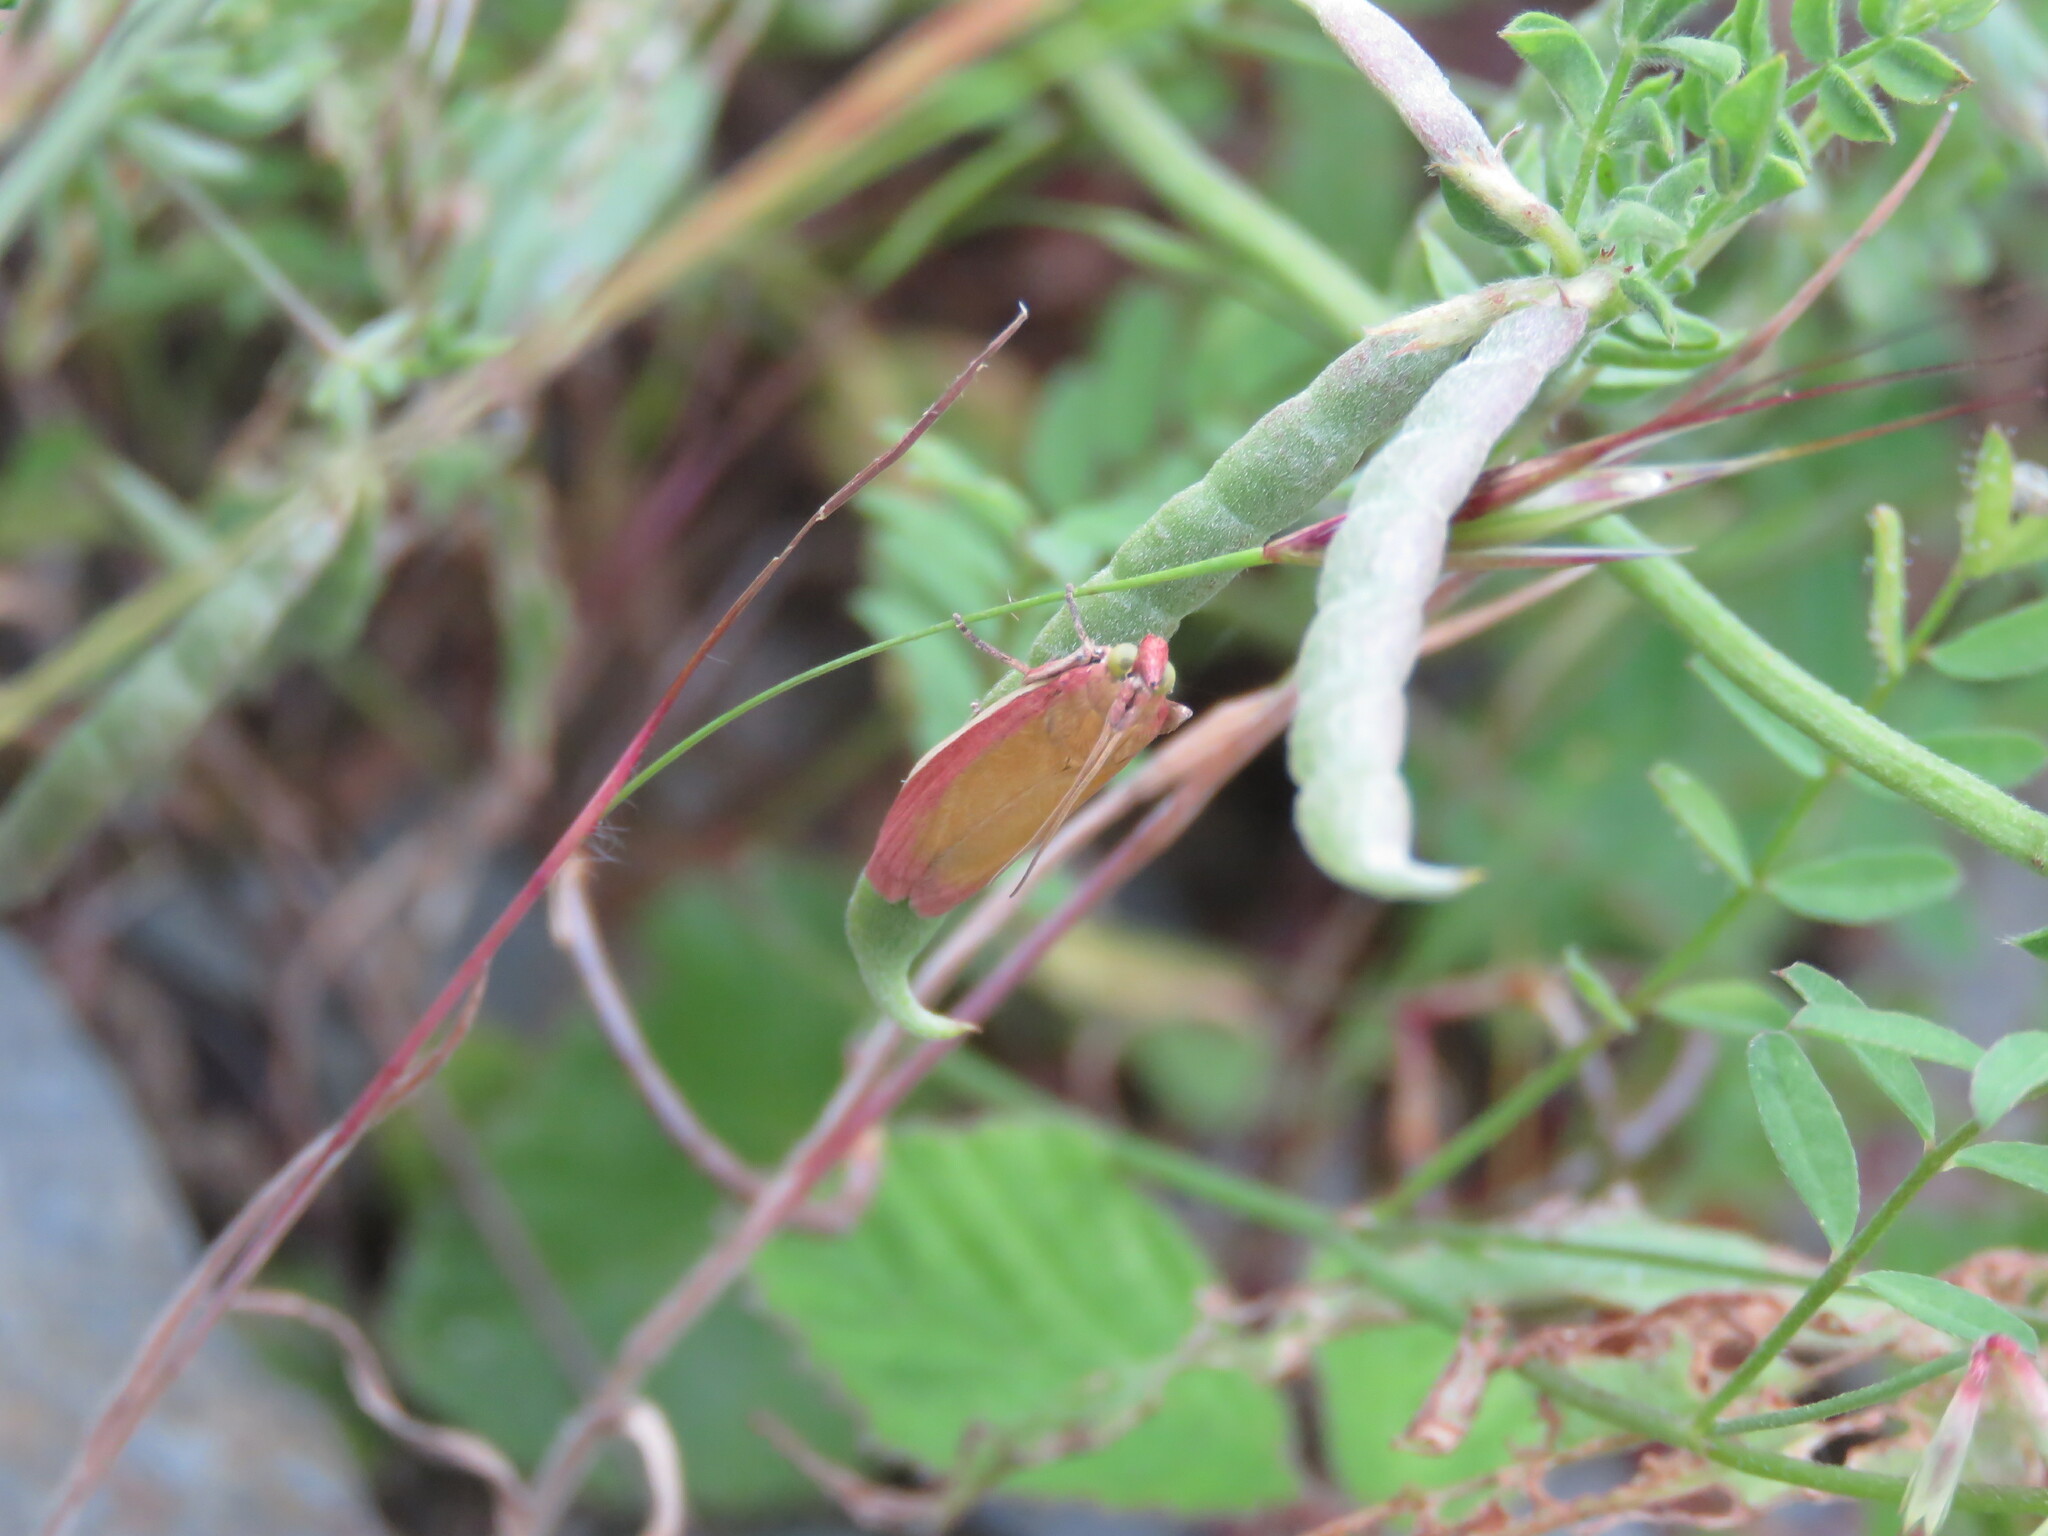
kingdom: Animalia
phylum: Arthropoda
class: Insecta
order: Lepidoptera
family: Pyralidae
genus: Oncocera
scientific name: Oncocera semirubella
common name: Rosy-striped knot-horn
